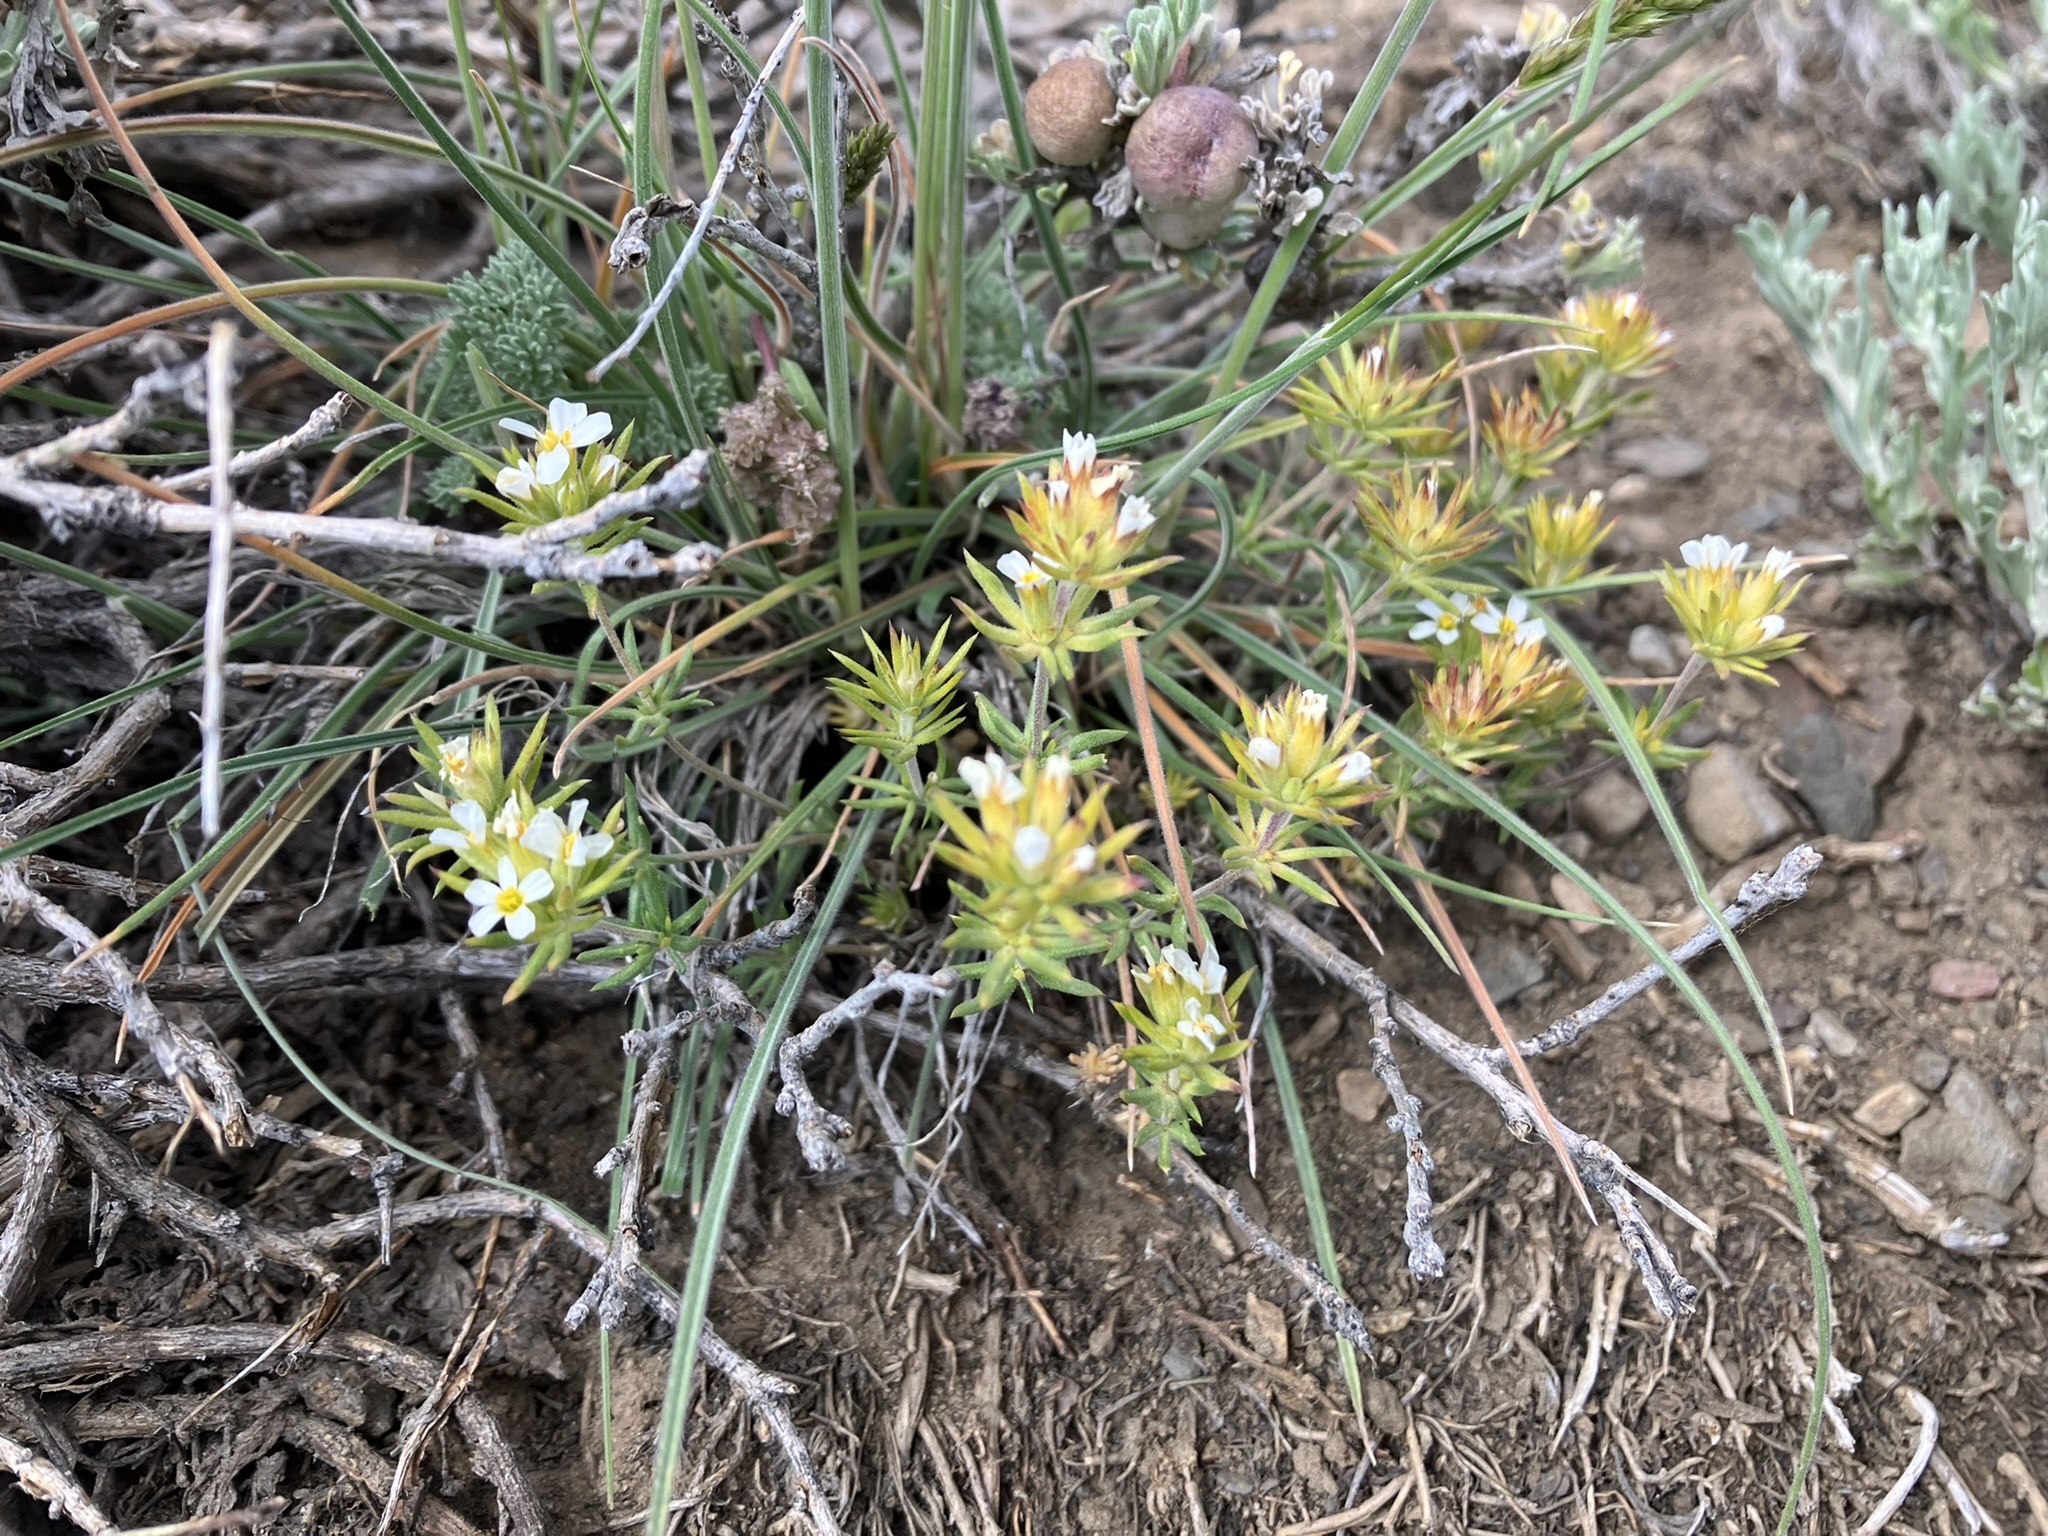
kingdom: Plantae
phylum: Tracheophyta
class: Magnoliopsida
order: Ericales
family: Polemoniaceae
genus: Leptosiphon
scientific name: Leptosiphon nuttallii
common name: Nuttall's linanthus
